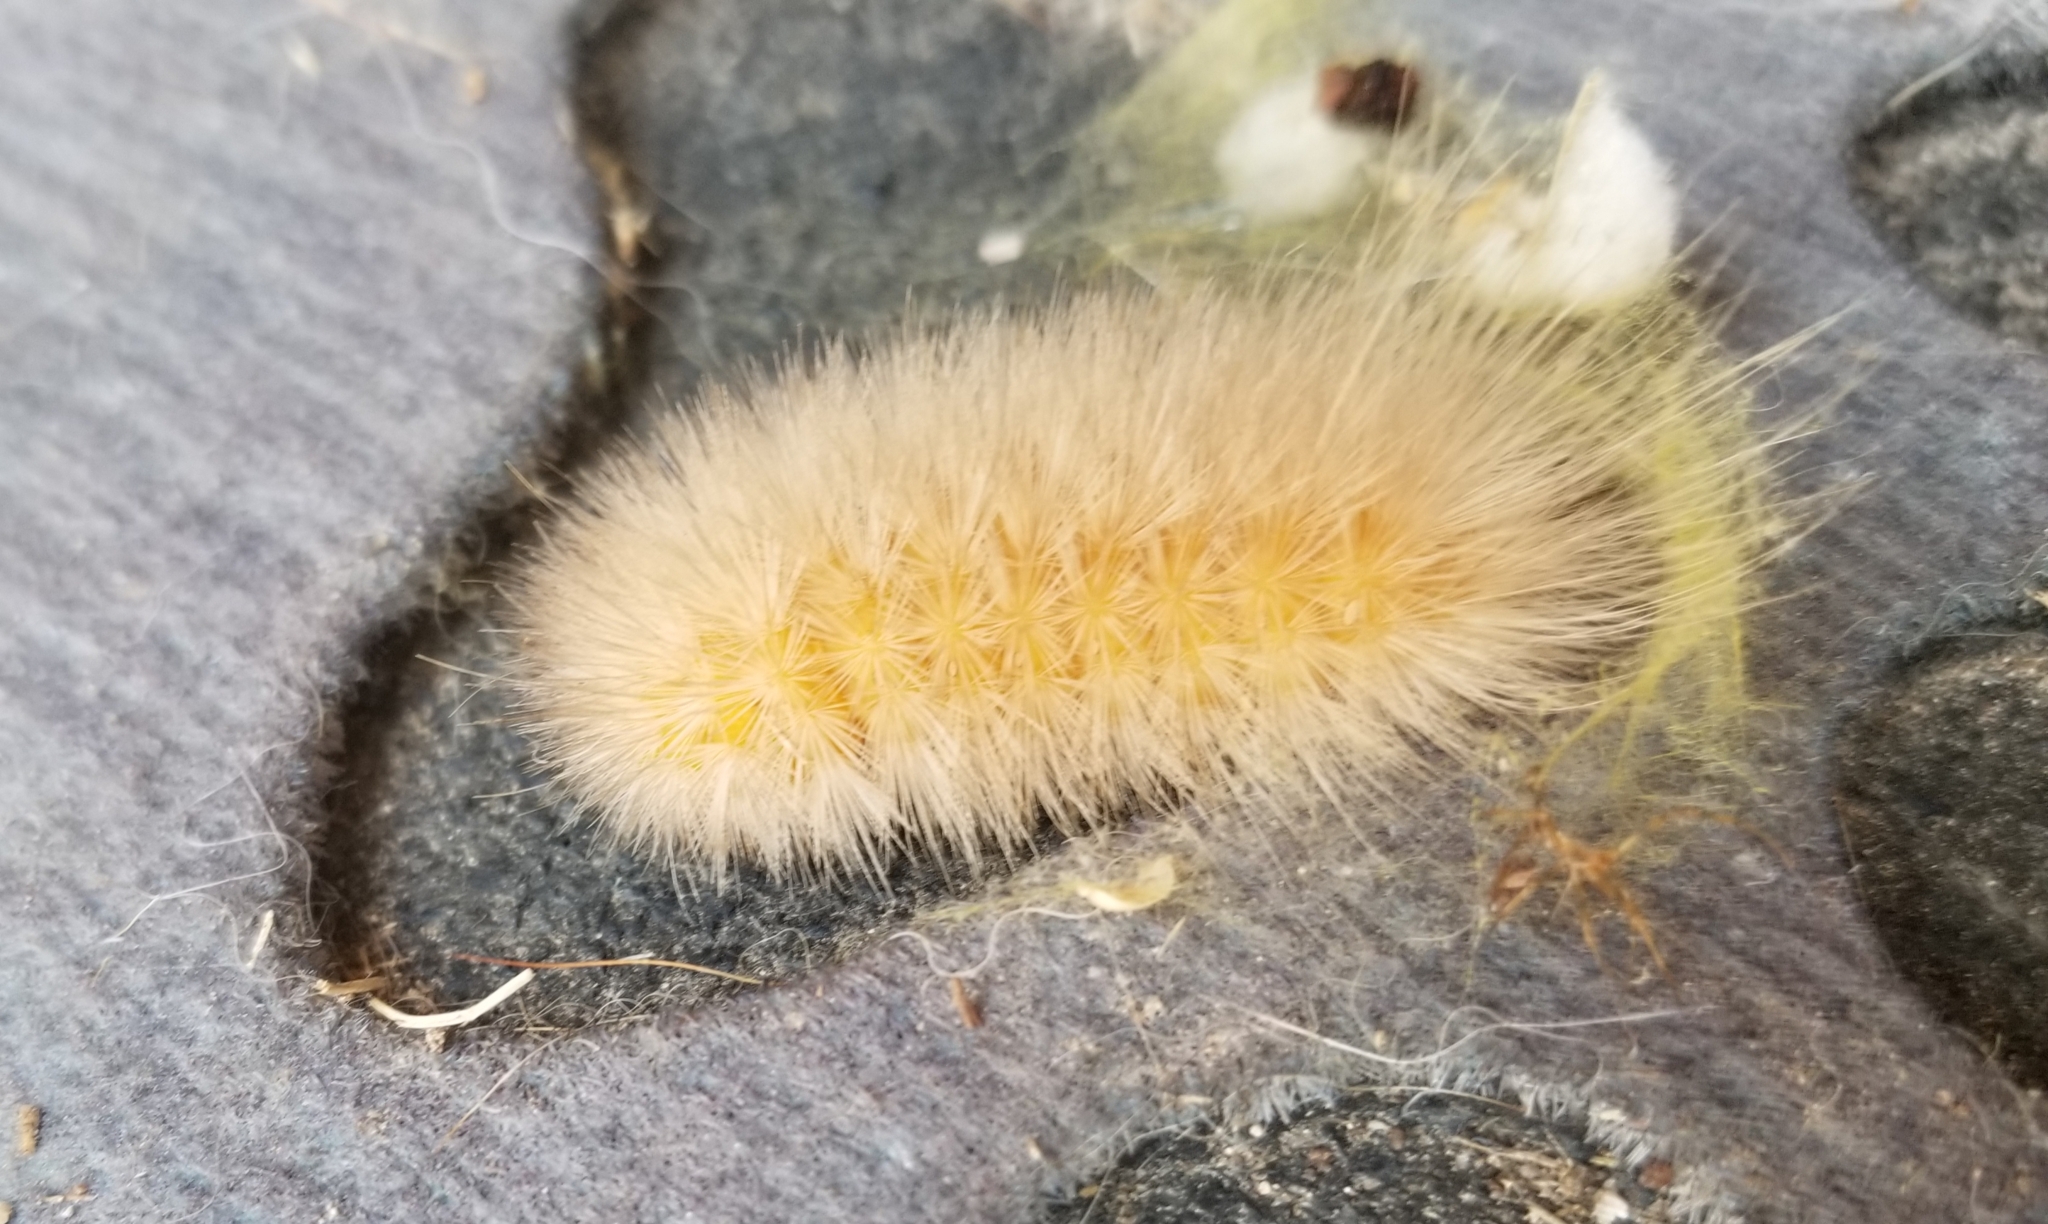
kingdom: Animalia
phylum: Arthropoda
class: Insecta
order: Lepidoptera
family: Erebidae
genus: Spilosoma
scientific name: Spilosoma virginica
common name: Virginia tiger moth
